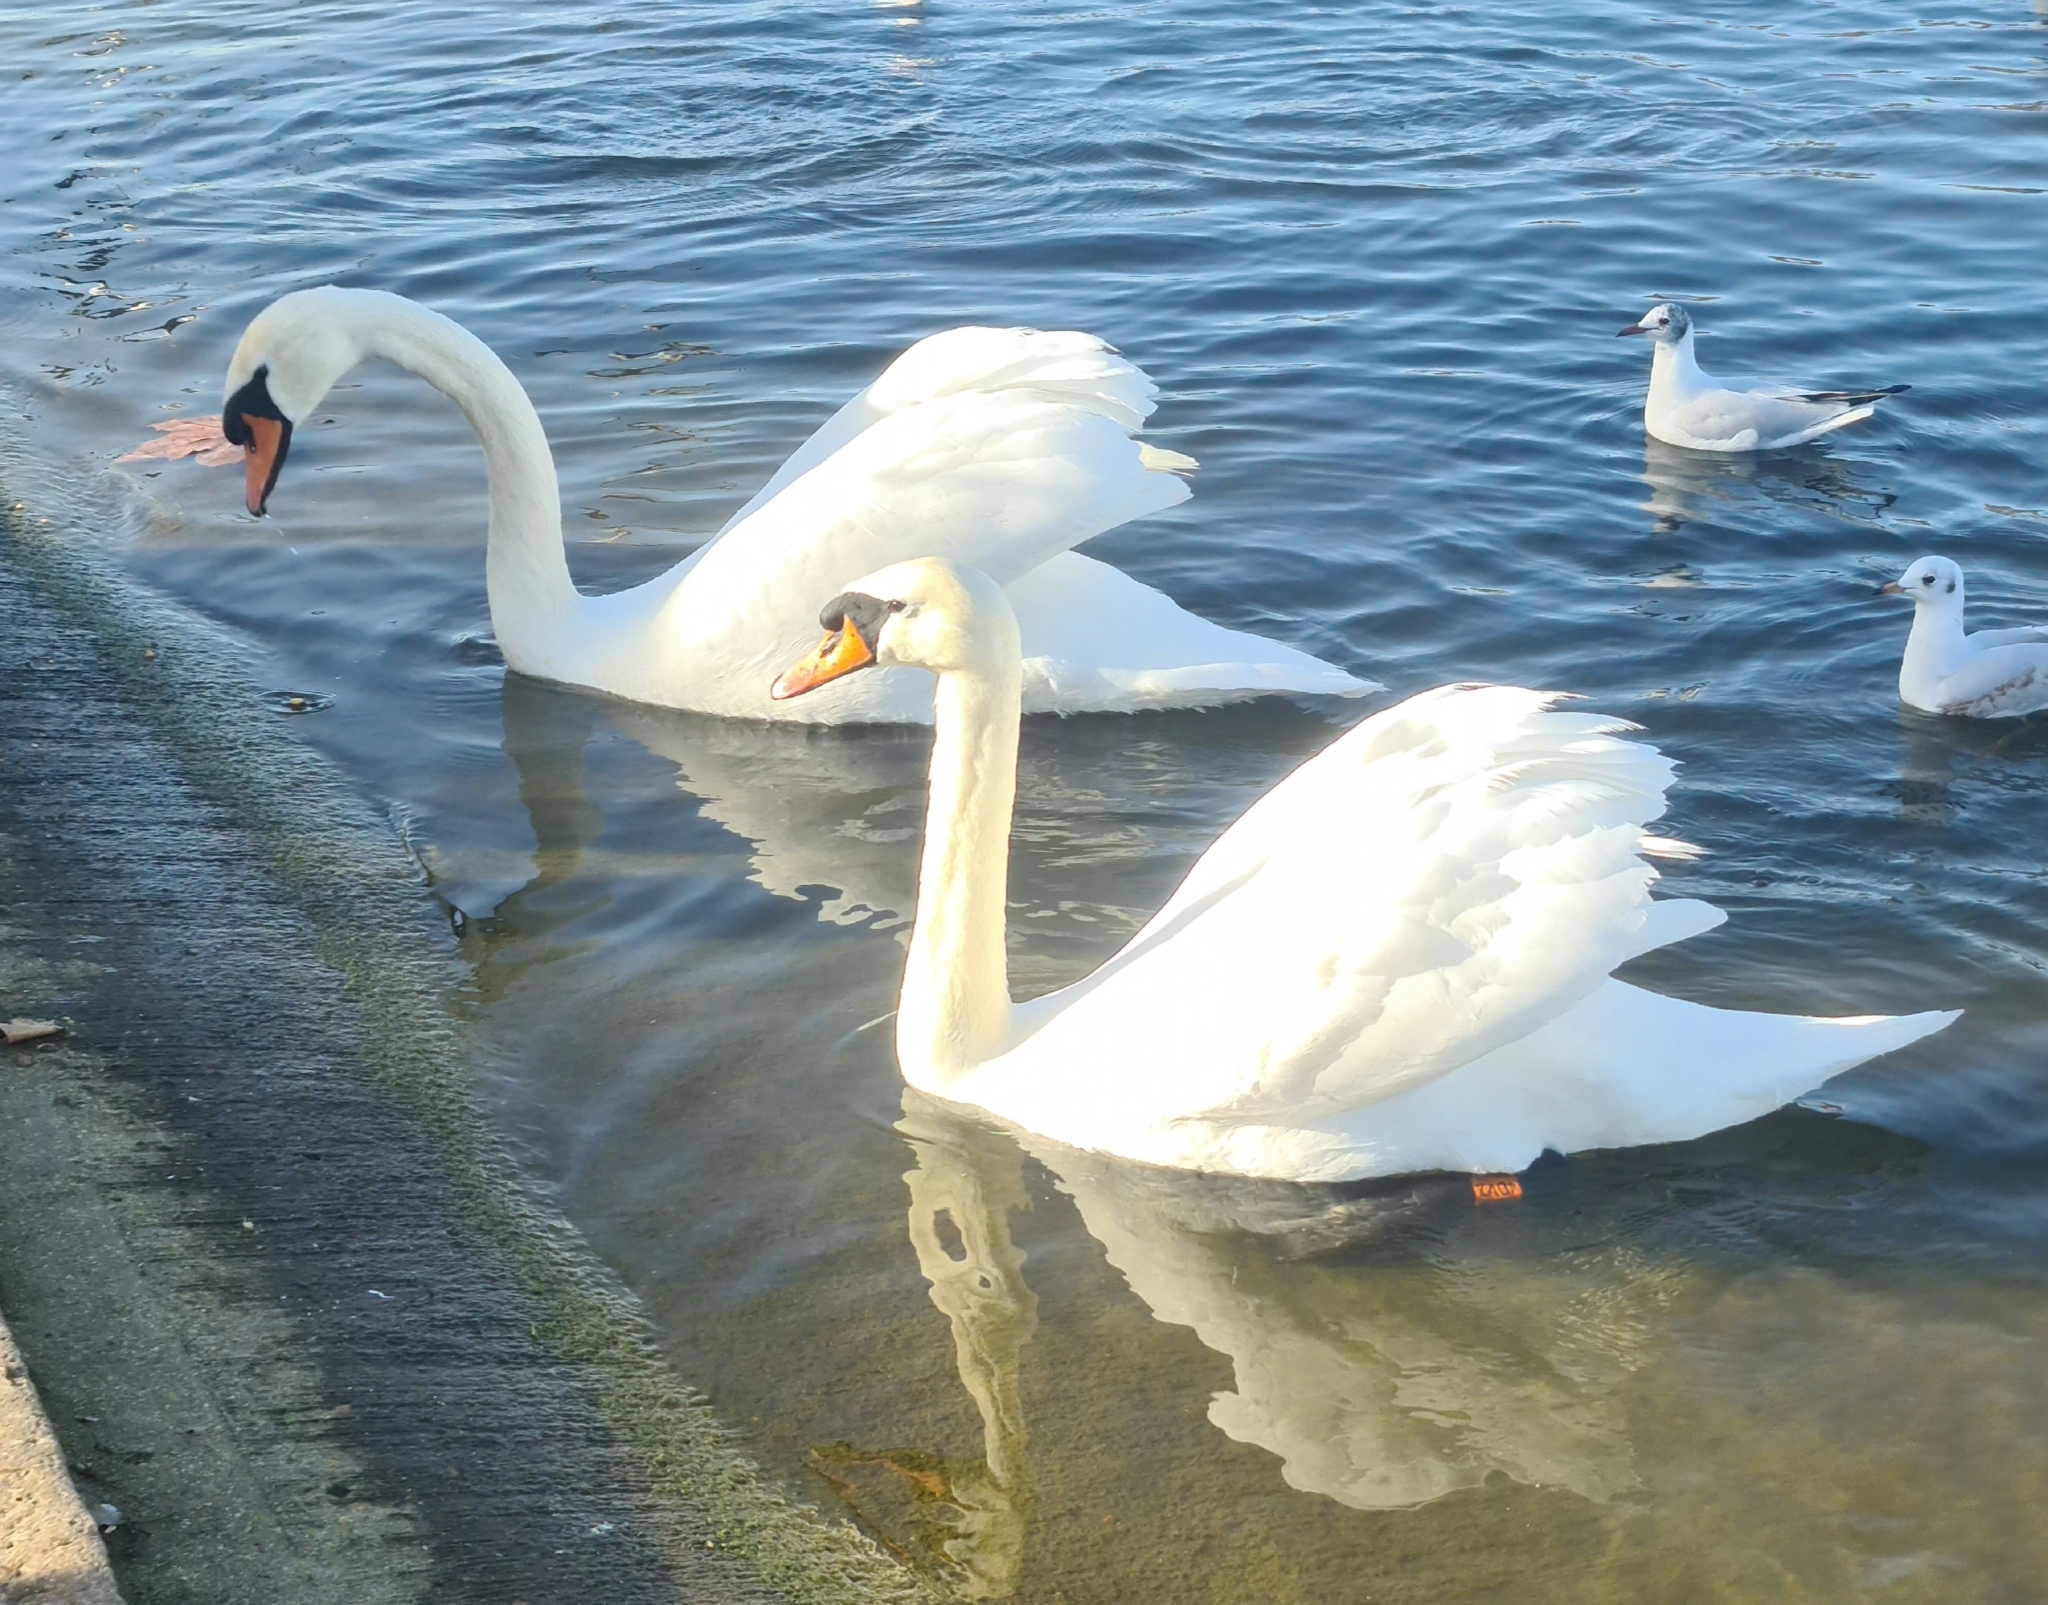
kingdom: Animalia
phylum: Chordata
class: Aves
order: Anseriformes
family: Anatidae
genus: Cygnus
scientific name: Cygnus olor
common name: Mute swan
